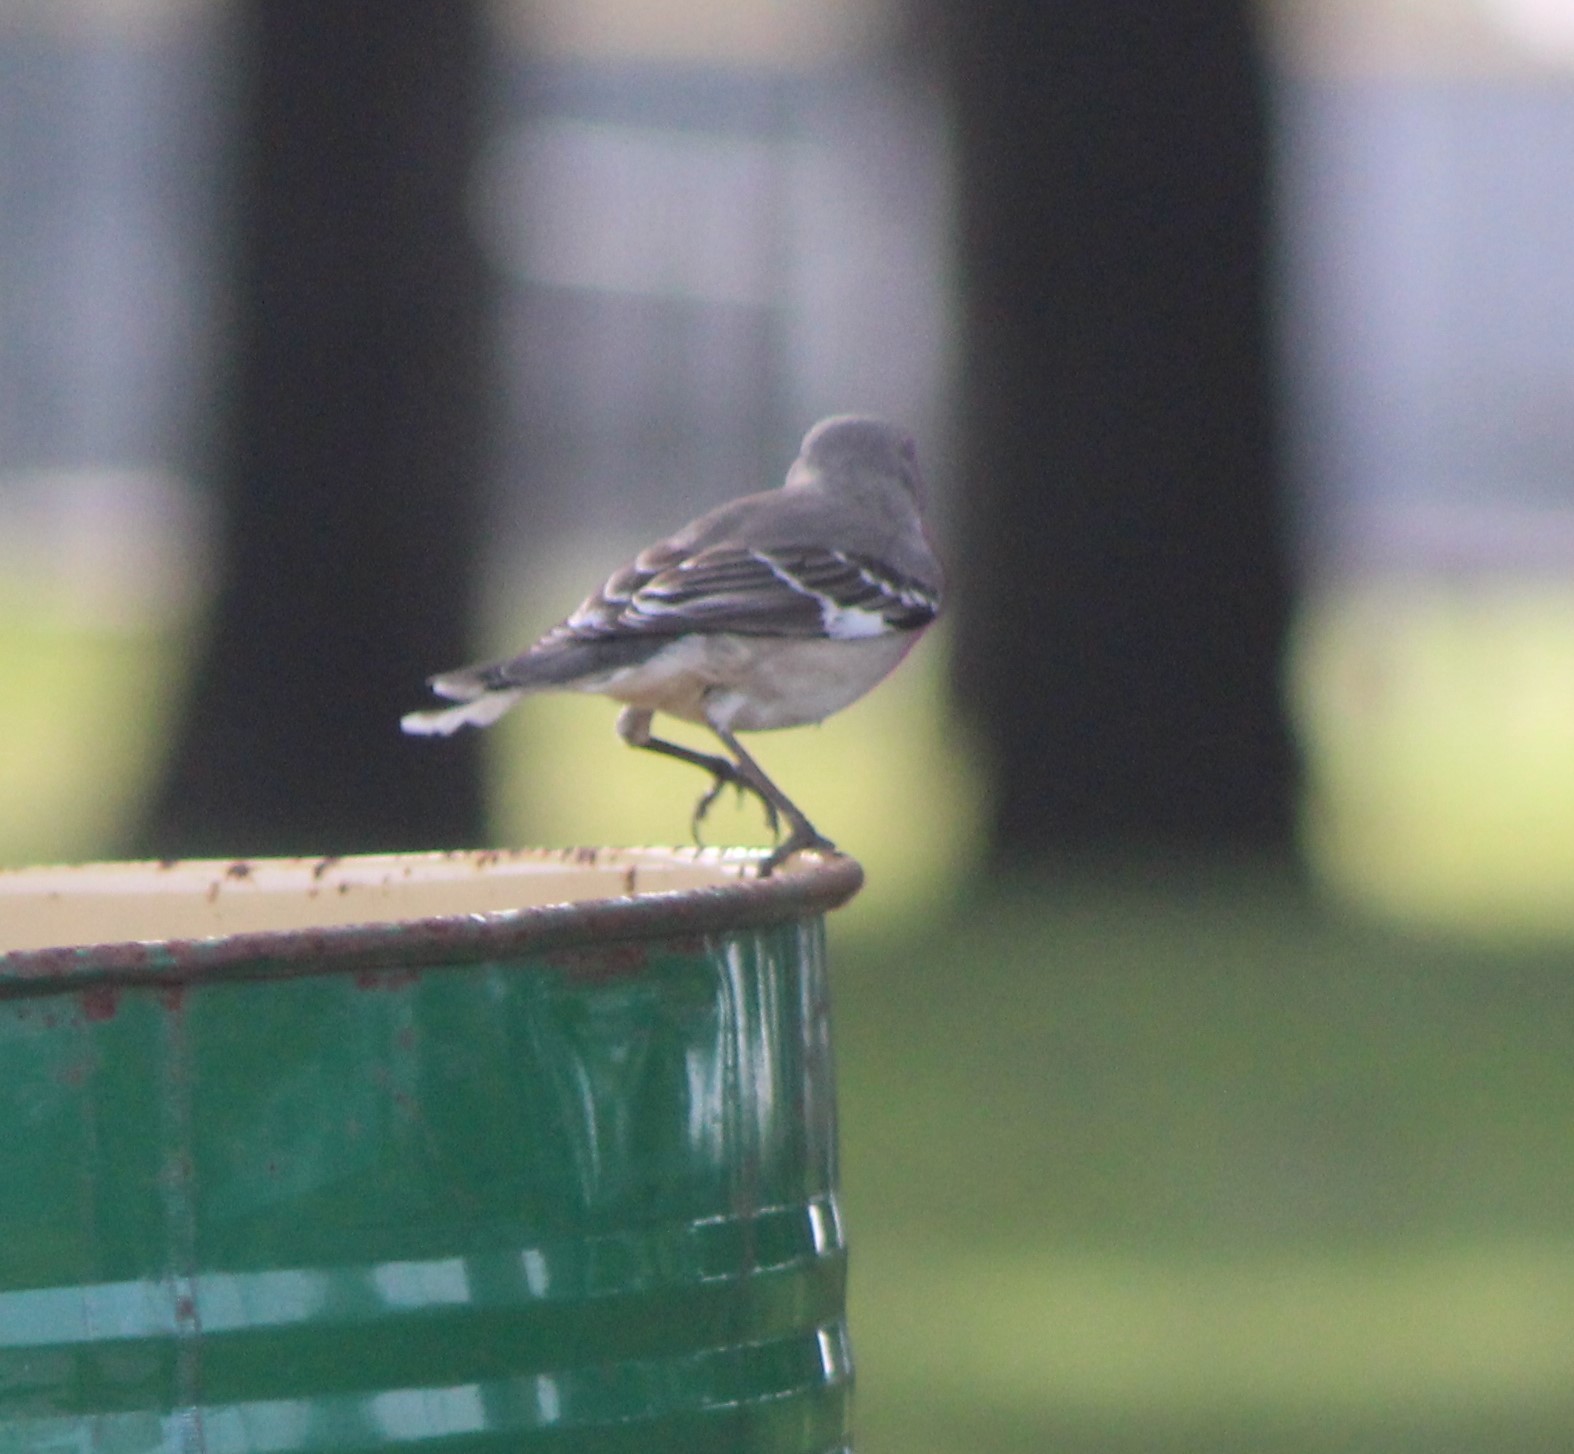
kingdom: Animalia
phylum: Chordata
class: Aves
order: Passeriformes
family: Mimidae
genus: Mimus
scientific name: Mimus polyglottos
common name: Northern mockingbird
